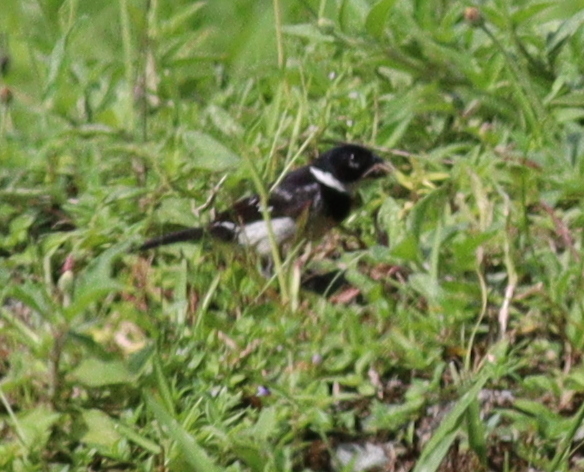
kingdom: Animalia
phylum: Chordata
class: Aves
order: Passeriformes
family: Thraupidae
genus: Sporophila
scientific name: Sporophila morelleti
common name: Morelet's seedeater
